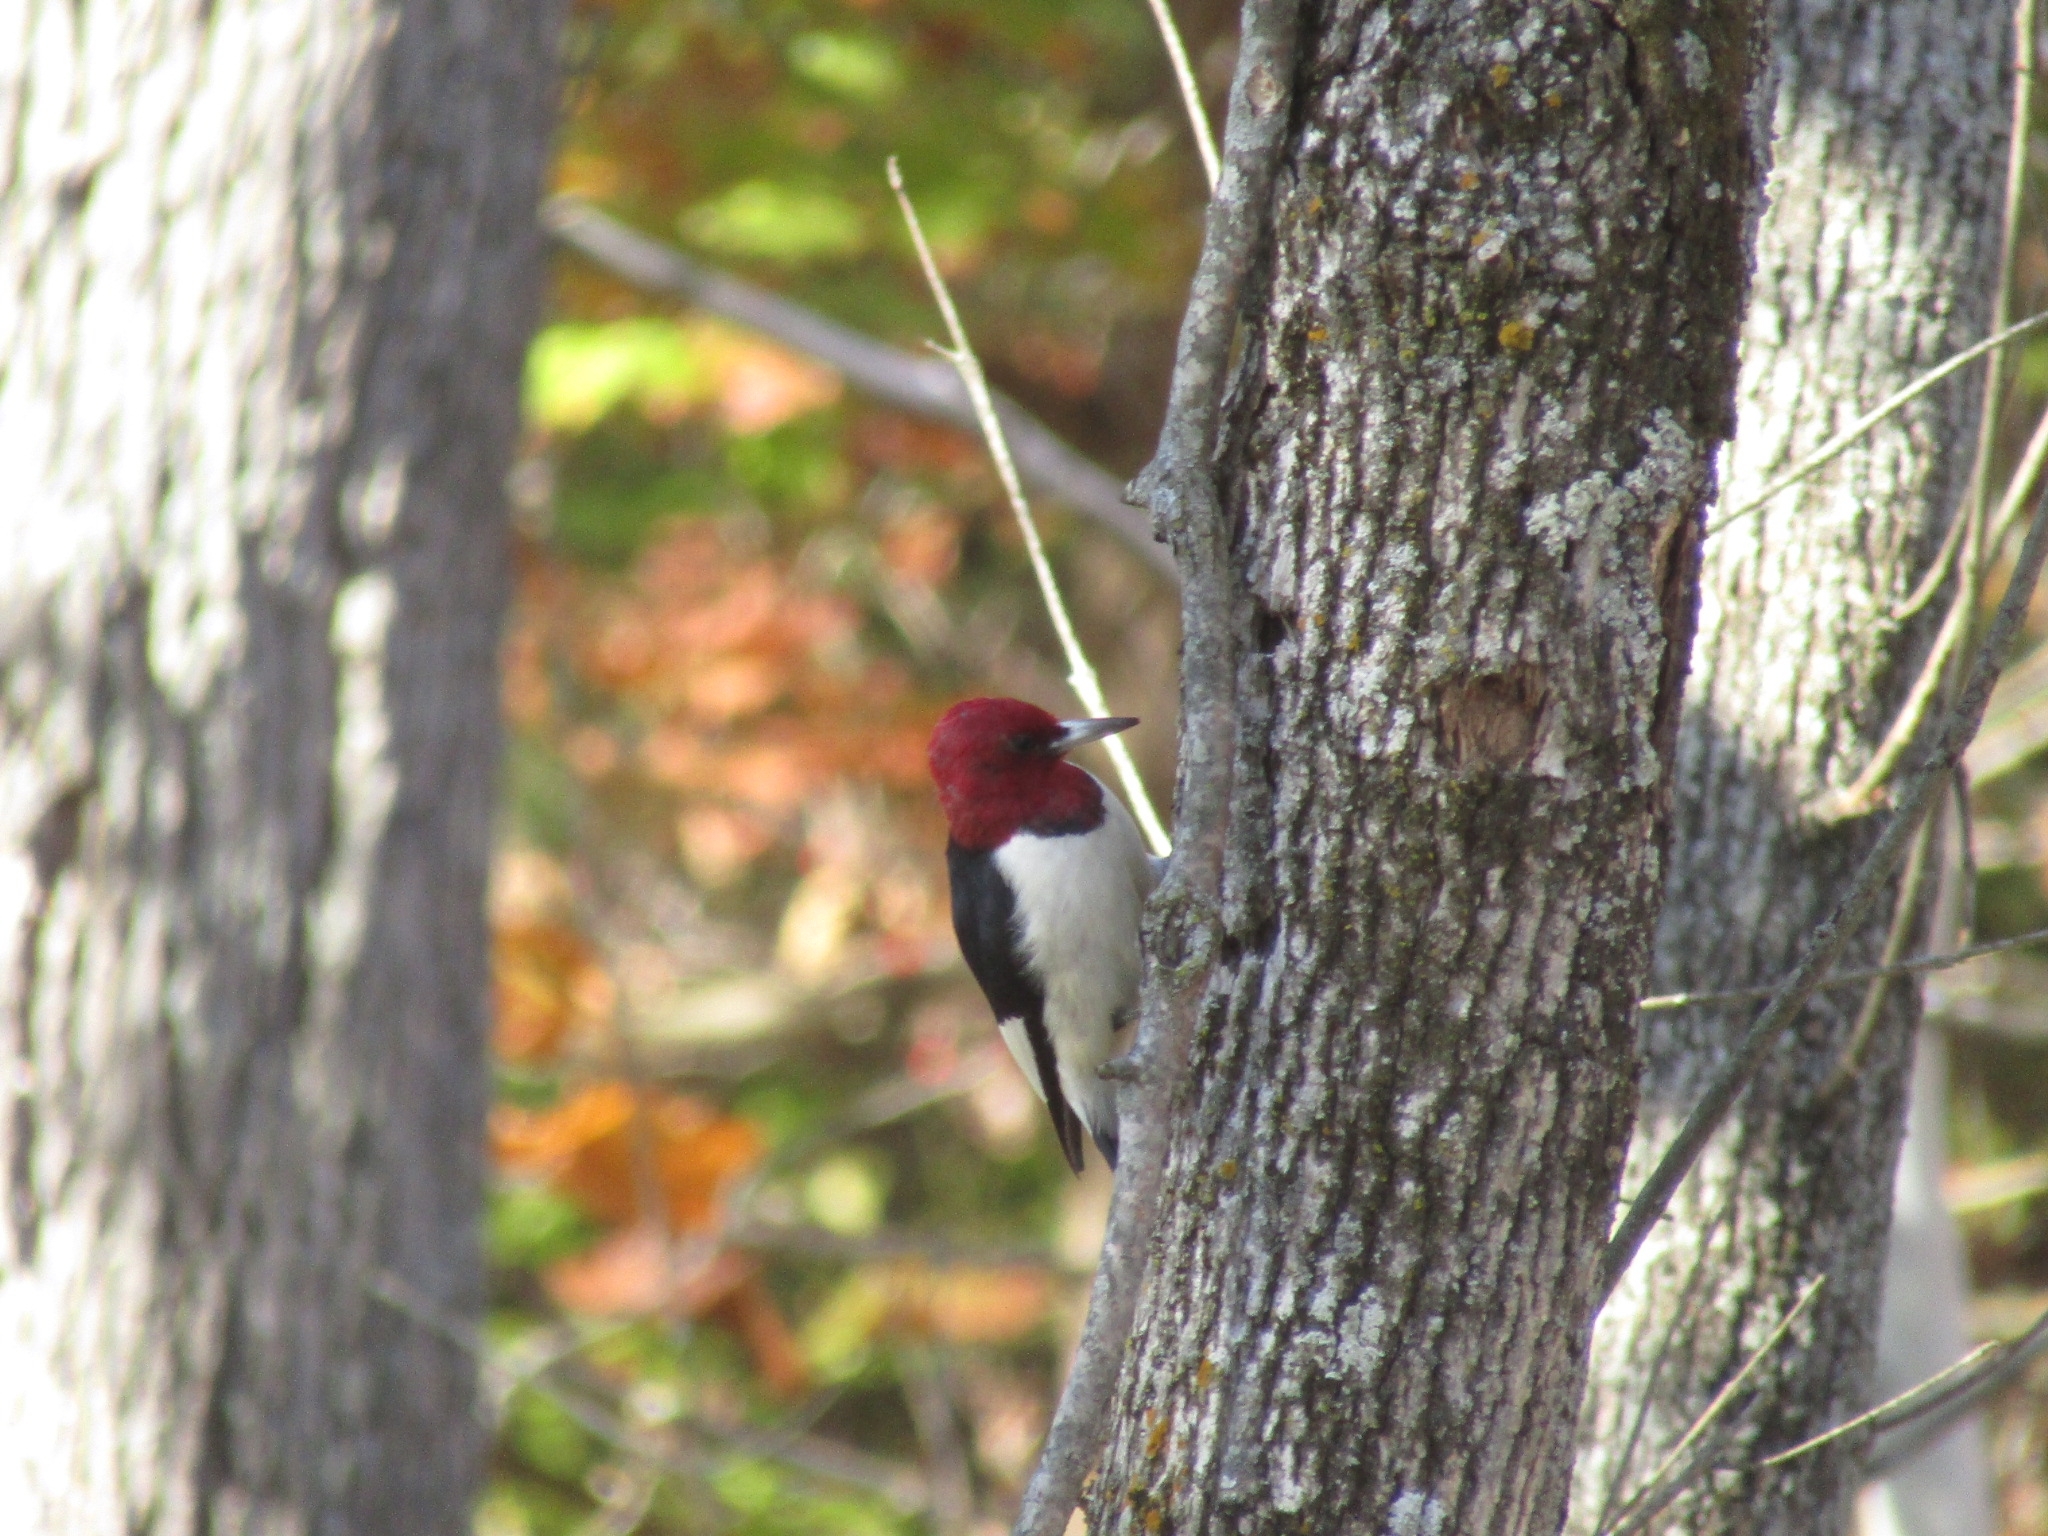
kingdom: Animalia
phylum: Chordata
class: Aves
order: Piciformes
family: Picidae
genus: Melanerpes
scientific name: Melanerpes erythrocephalus
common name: Red-headed woodpecker
